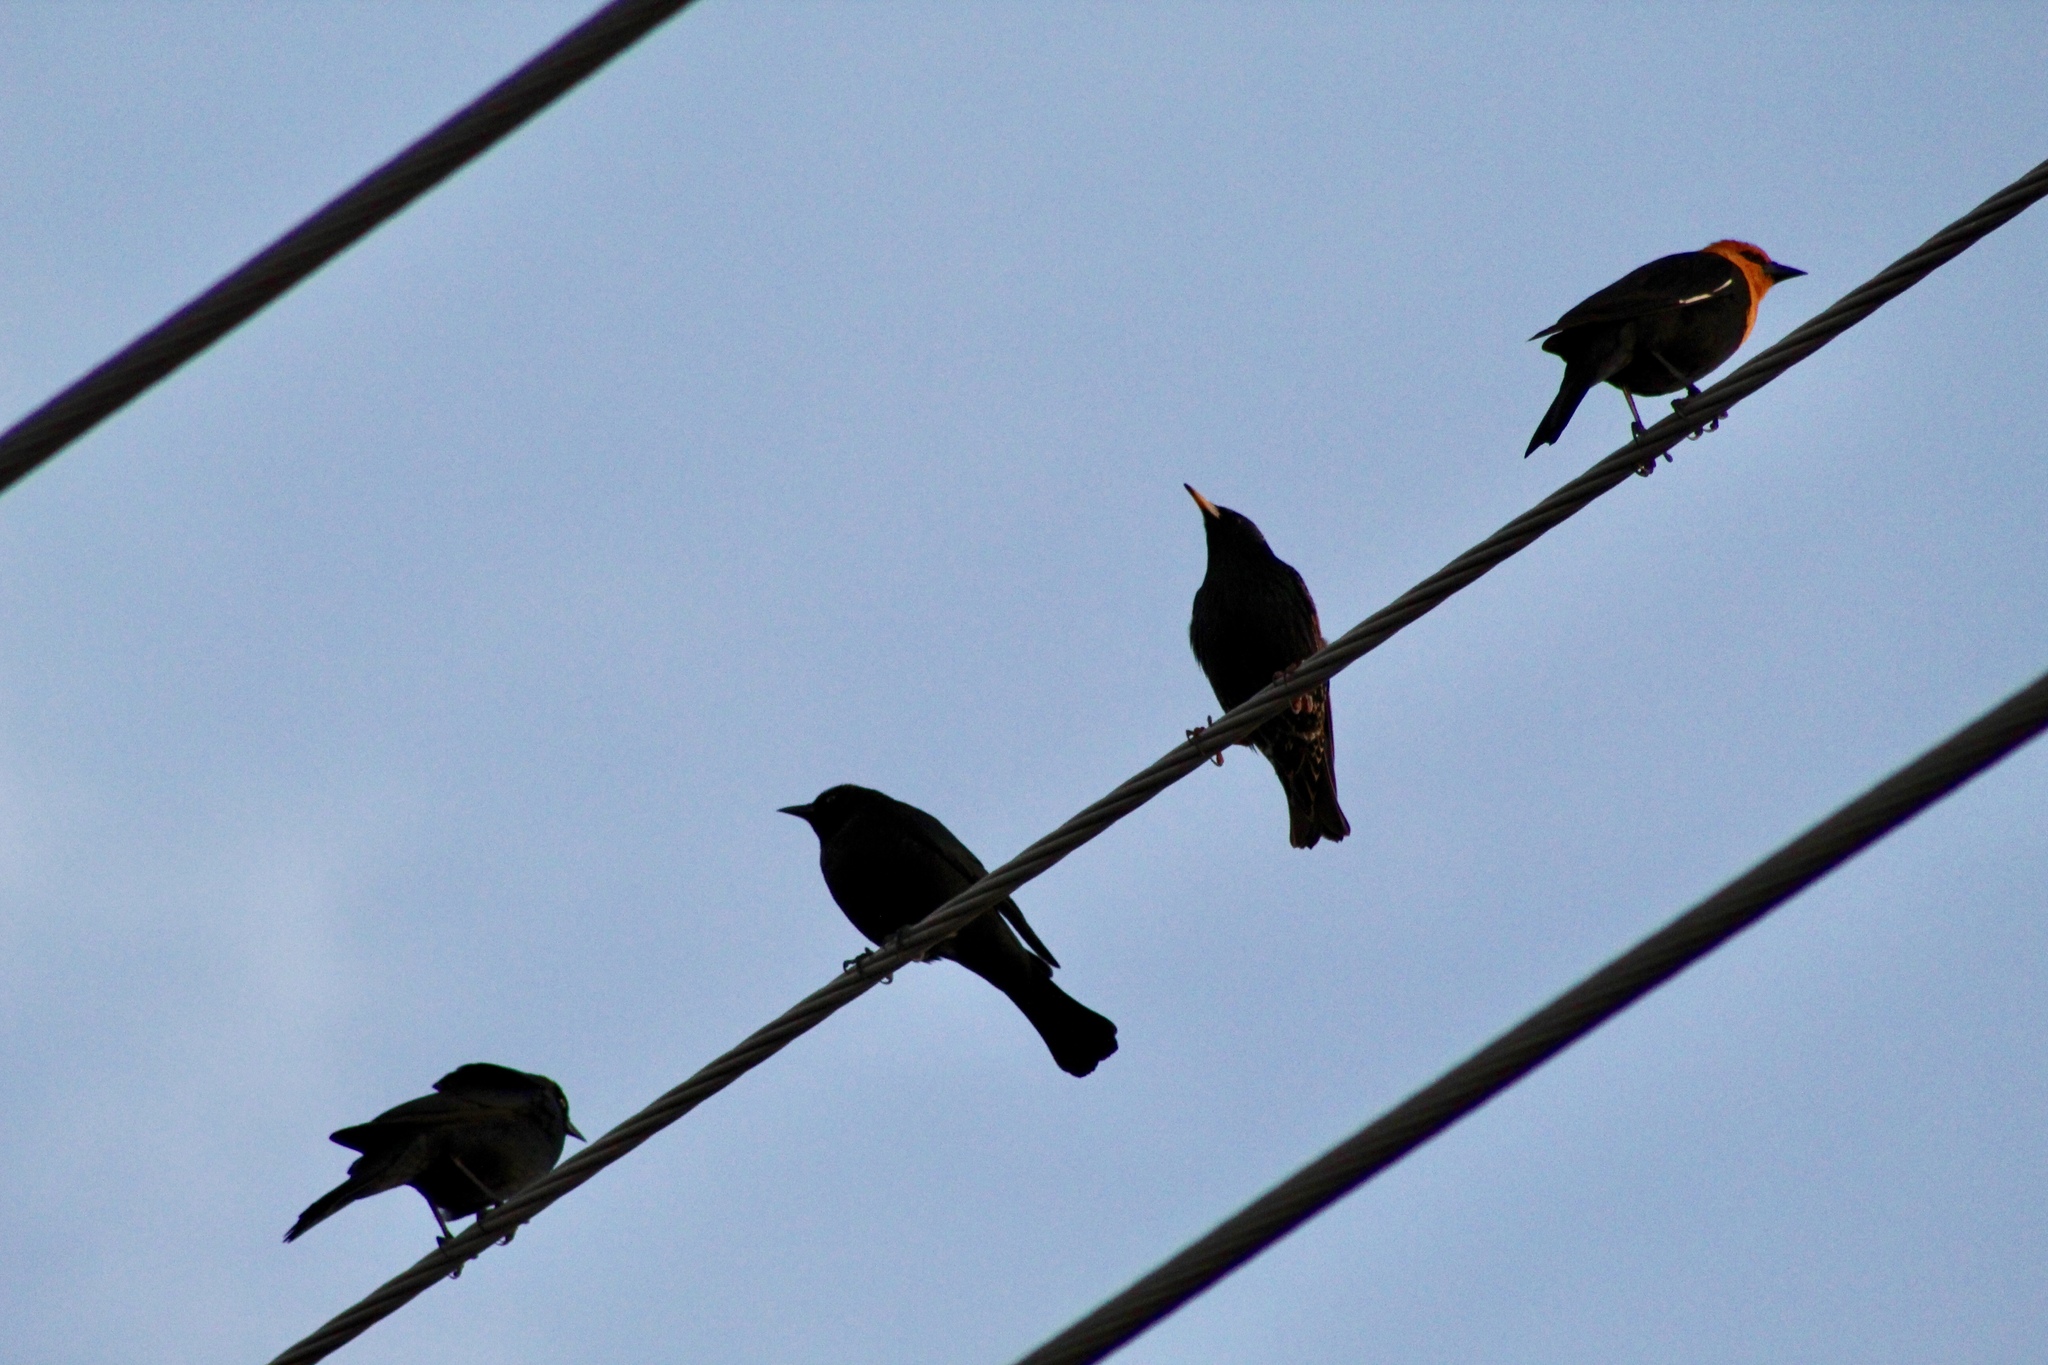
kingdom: Animalia
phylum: Chordata
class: Aves
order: Passeriformes
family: Icteridae
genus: Xanthocephalus
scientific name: Xanthocephalus xanthocephalus
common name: Yellow-headed blackbird
